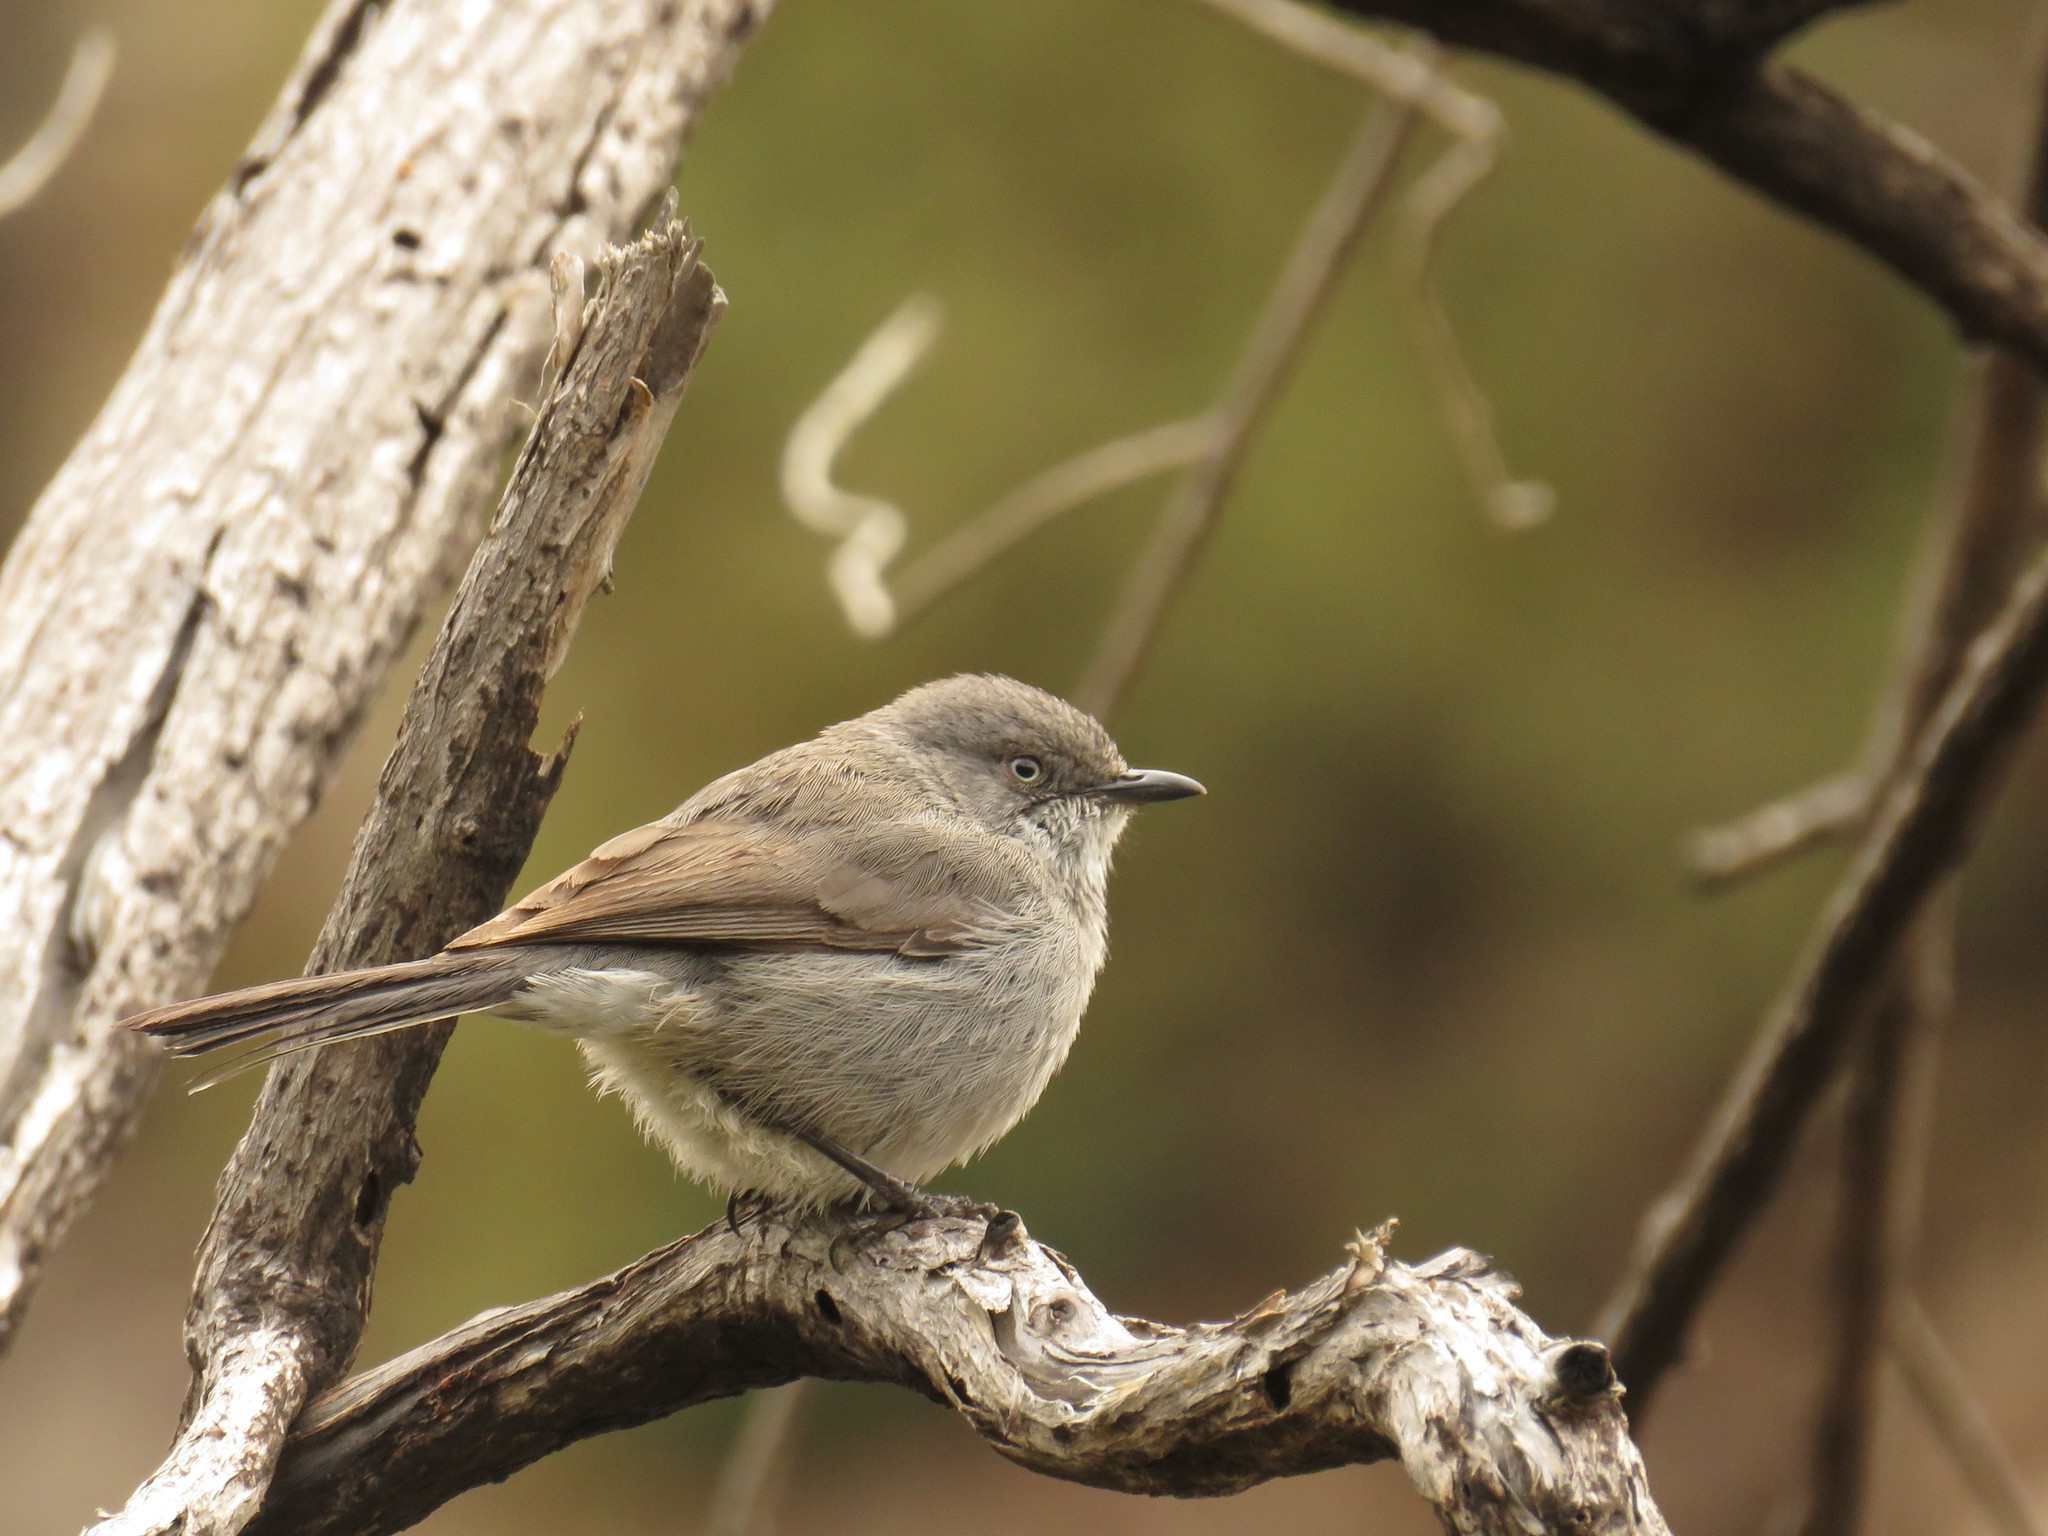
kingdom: Animalia
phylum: Chordata
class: Aves
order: Passeriformes
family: Sylviidae
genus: Sylvia
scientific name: Sylvia layardi
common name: Layard's warbler
